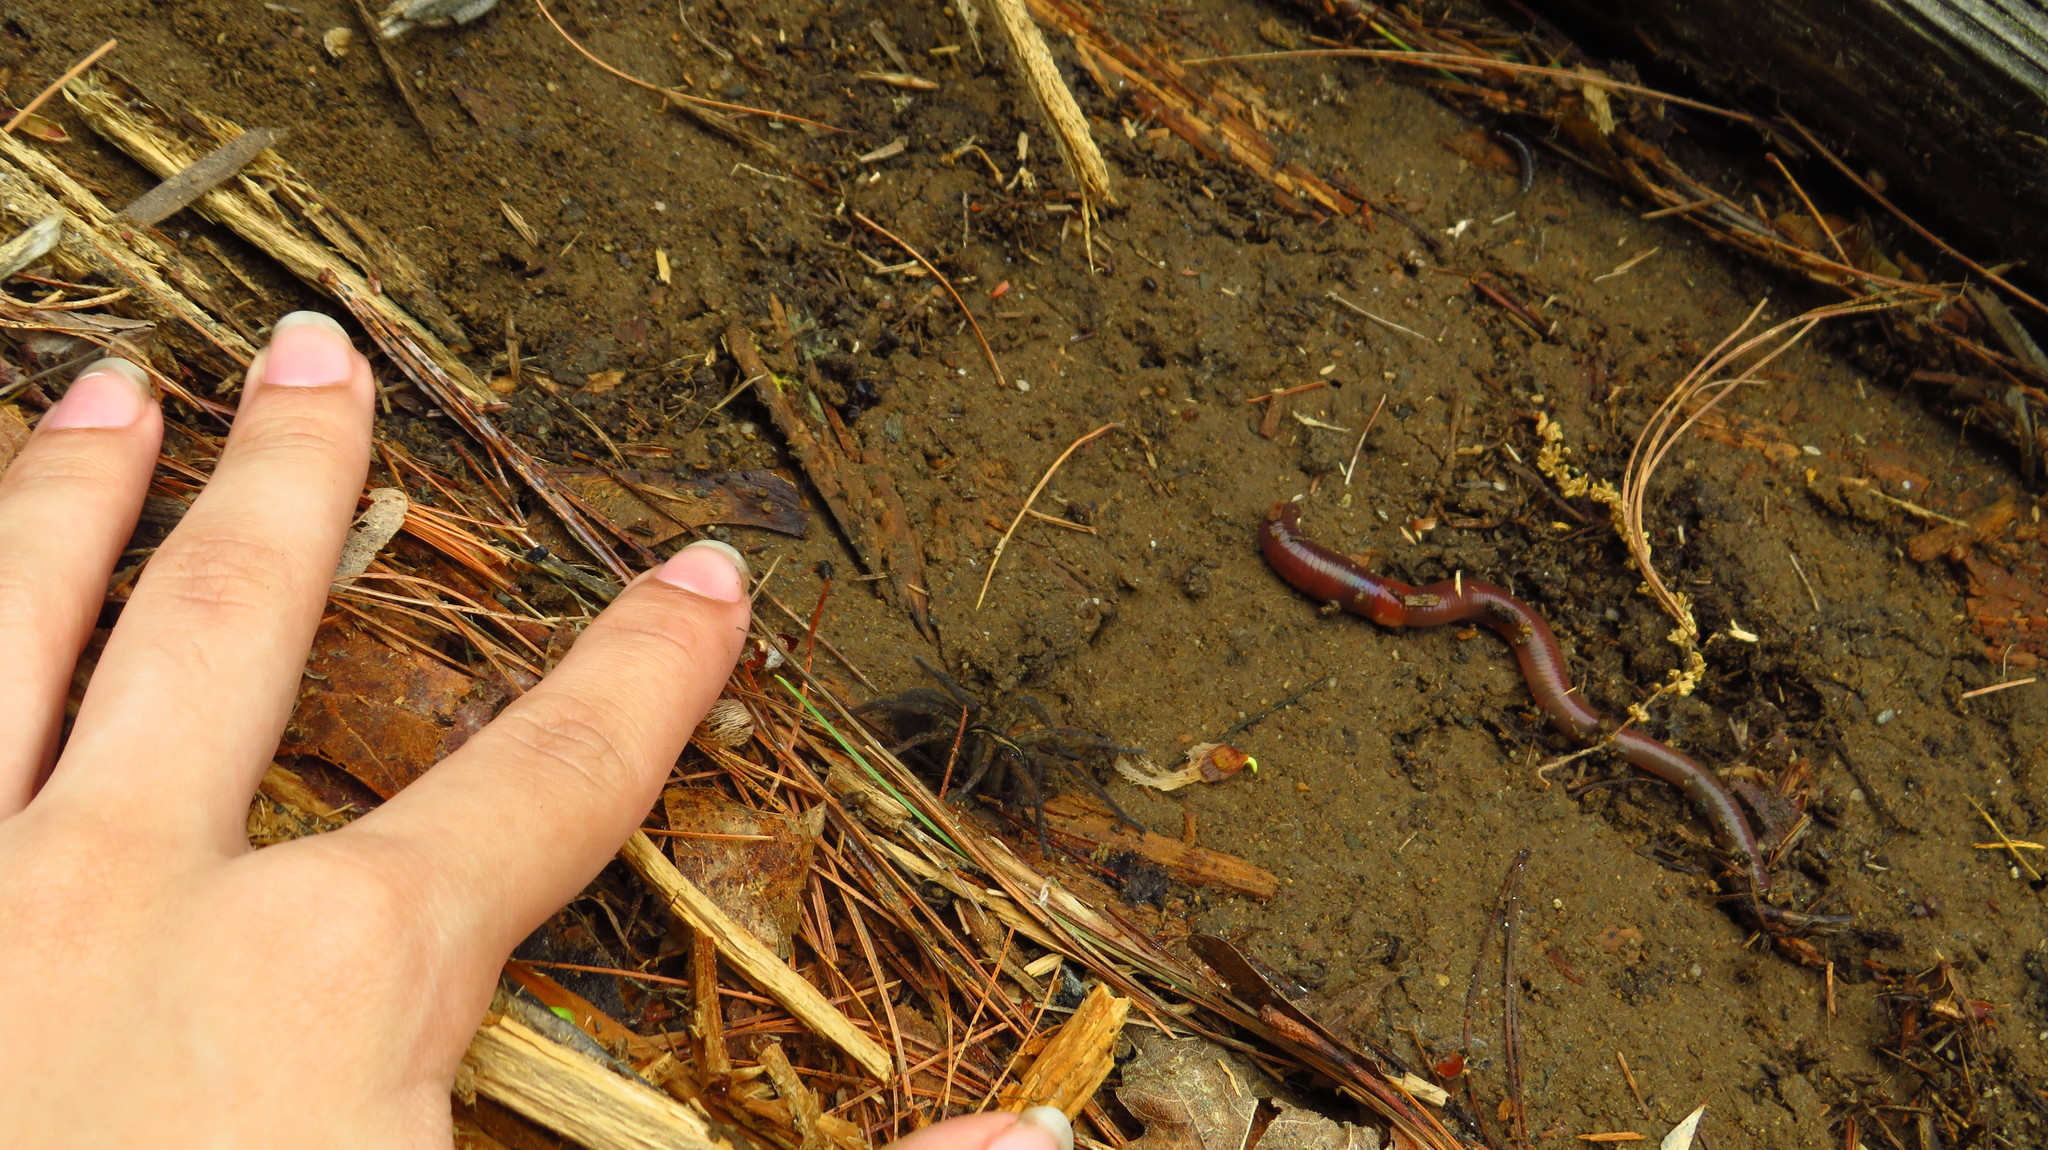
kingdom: Animalia
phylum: Arthropoda
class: Arachnida
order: Araneae
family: Lycosidae
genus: Tigrosa
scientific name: Tigrosa helluo
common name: Wetland giant wolf spider
